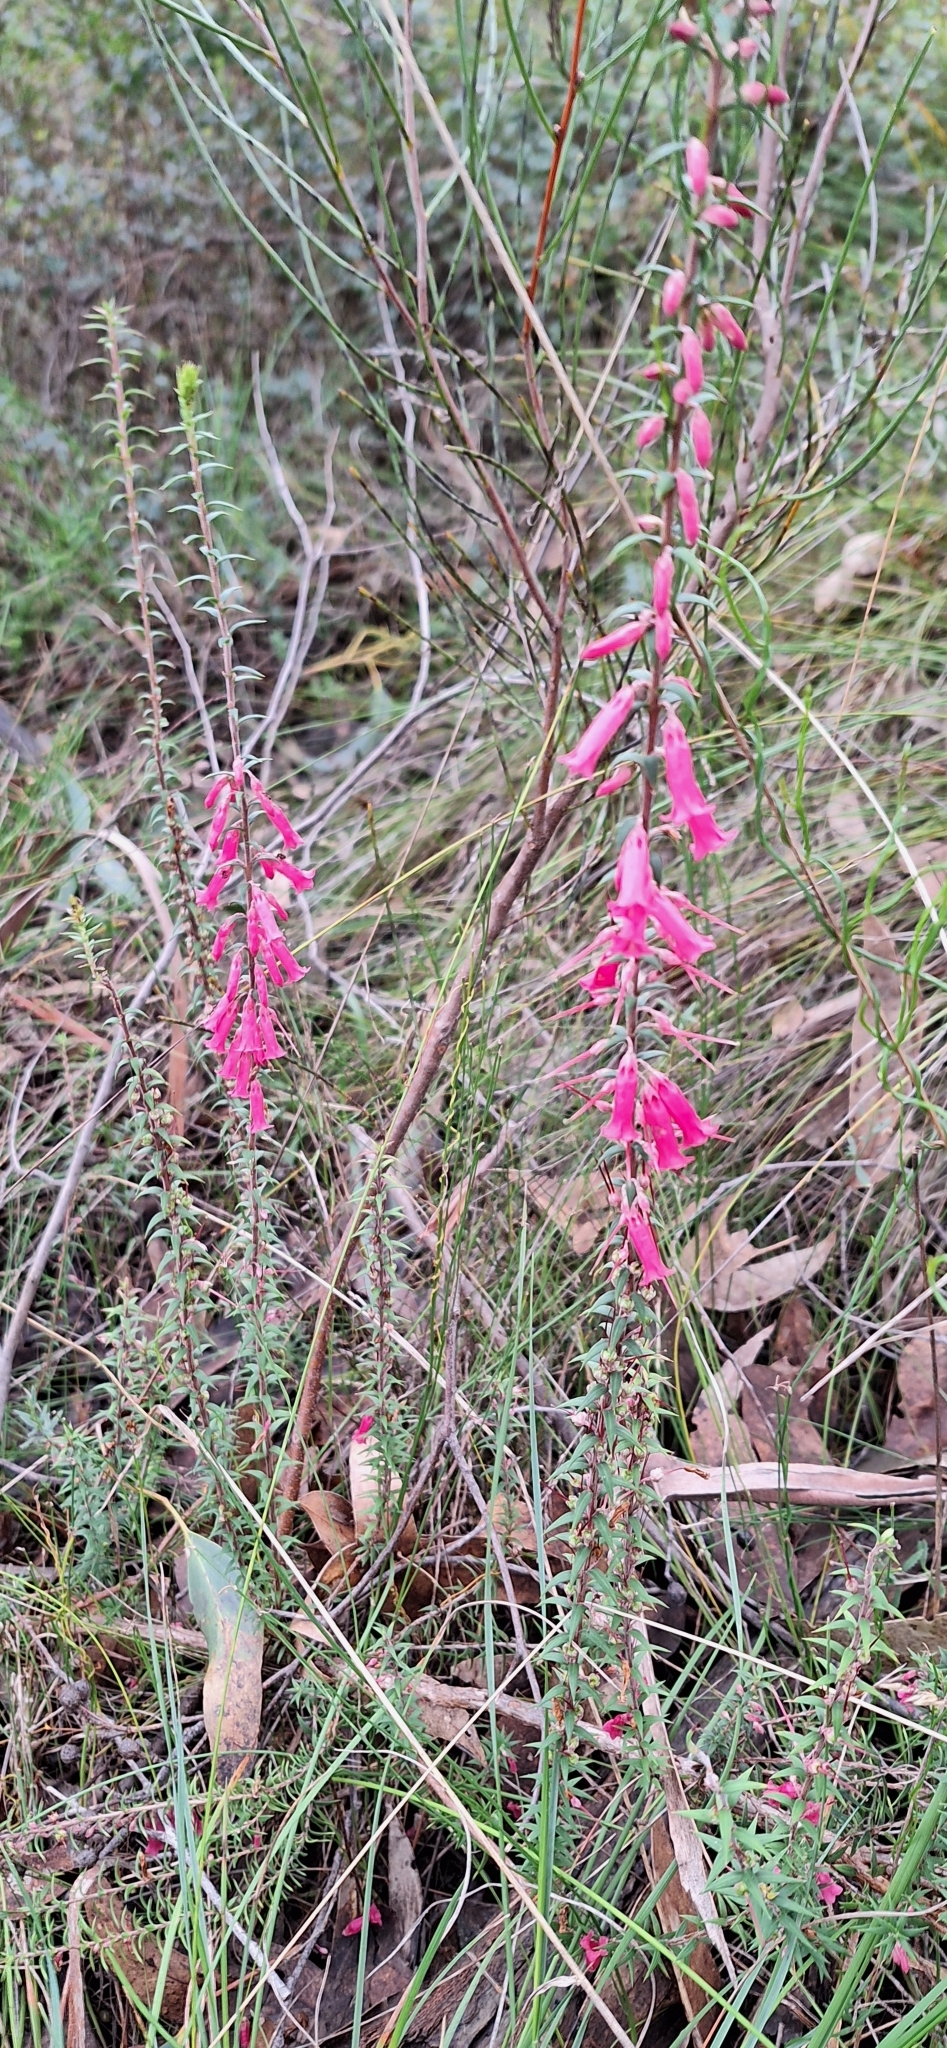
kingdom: Plantae
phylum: Tracheophyta
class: Magnoliopsida
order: Ericales
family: Ericaceae
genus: Epacris
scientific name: Epacris impressa
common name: Common-heath
